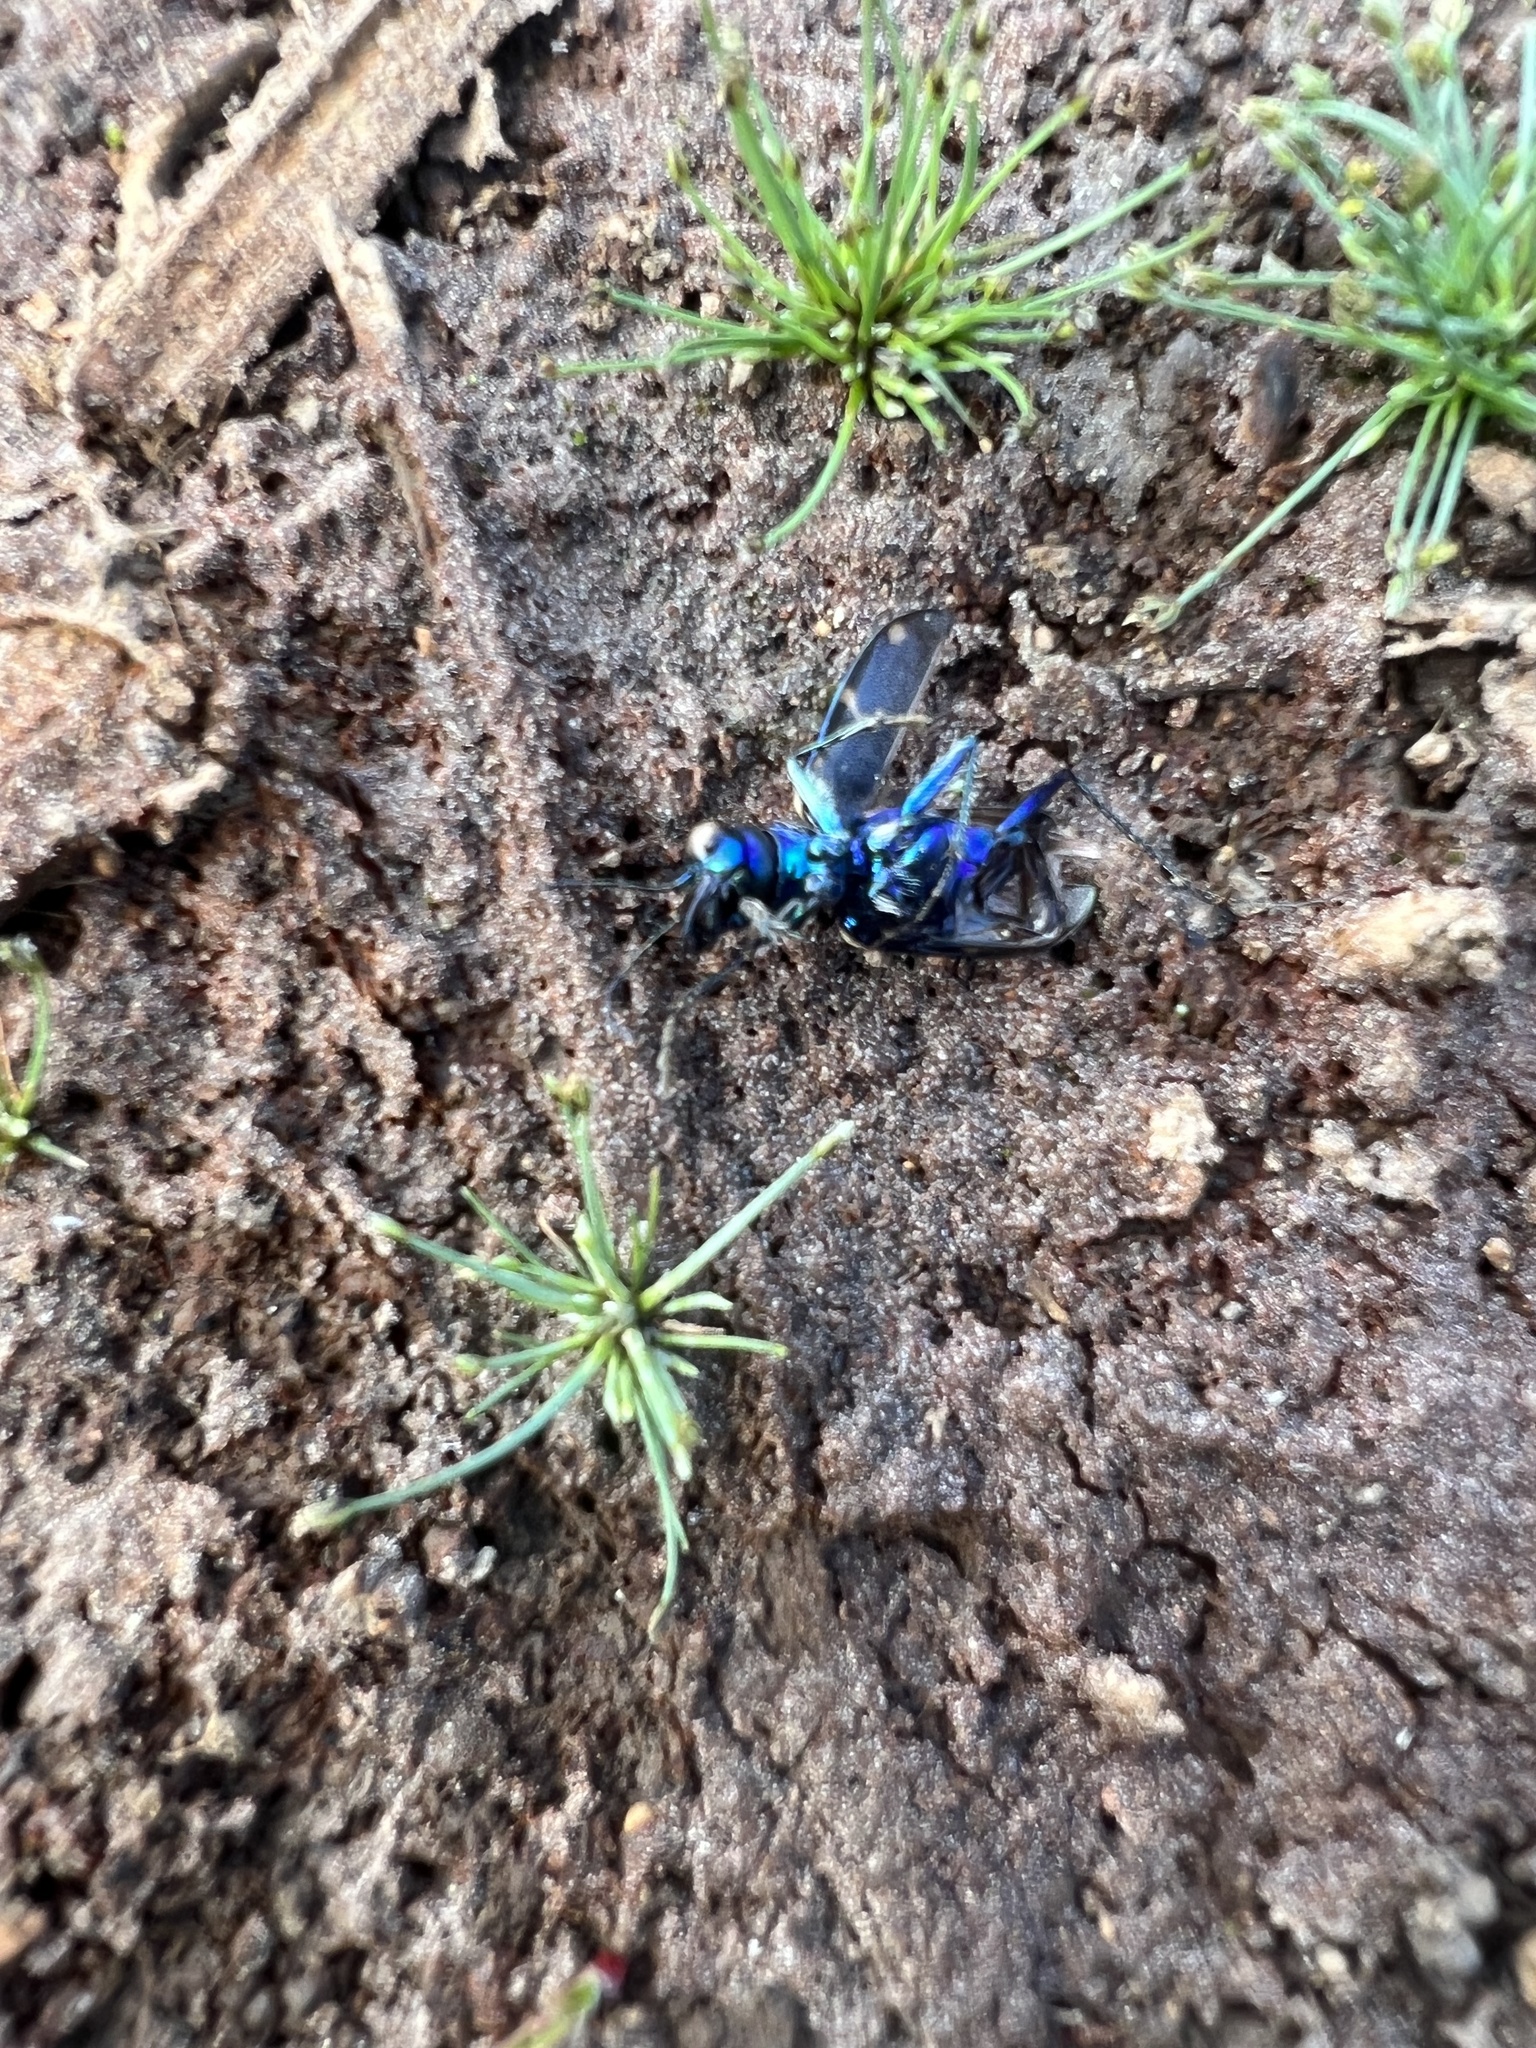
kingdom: Animalia
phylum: Arthropoda
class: Insecta
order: Coleoptera
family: Carabidae
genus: Cicindela
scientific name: Cicindela longilabris
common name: Boreal long-lipped tiger beetle
